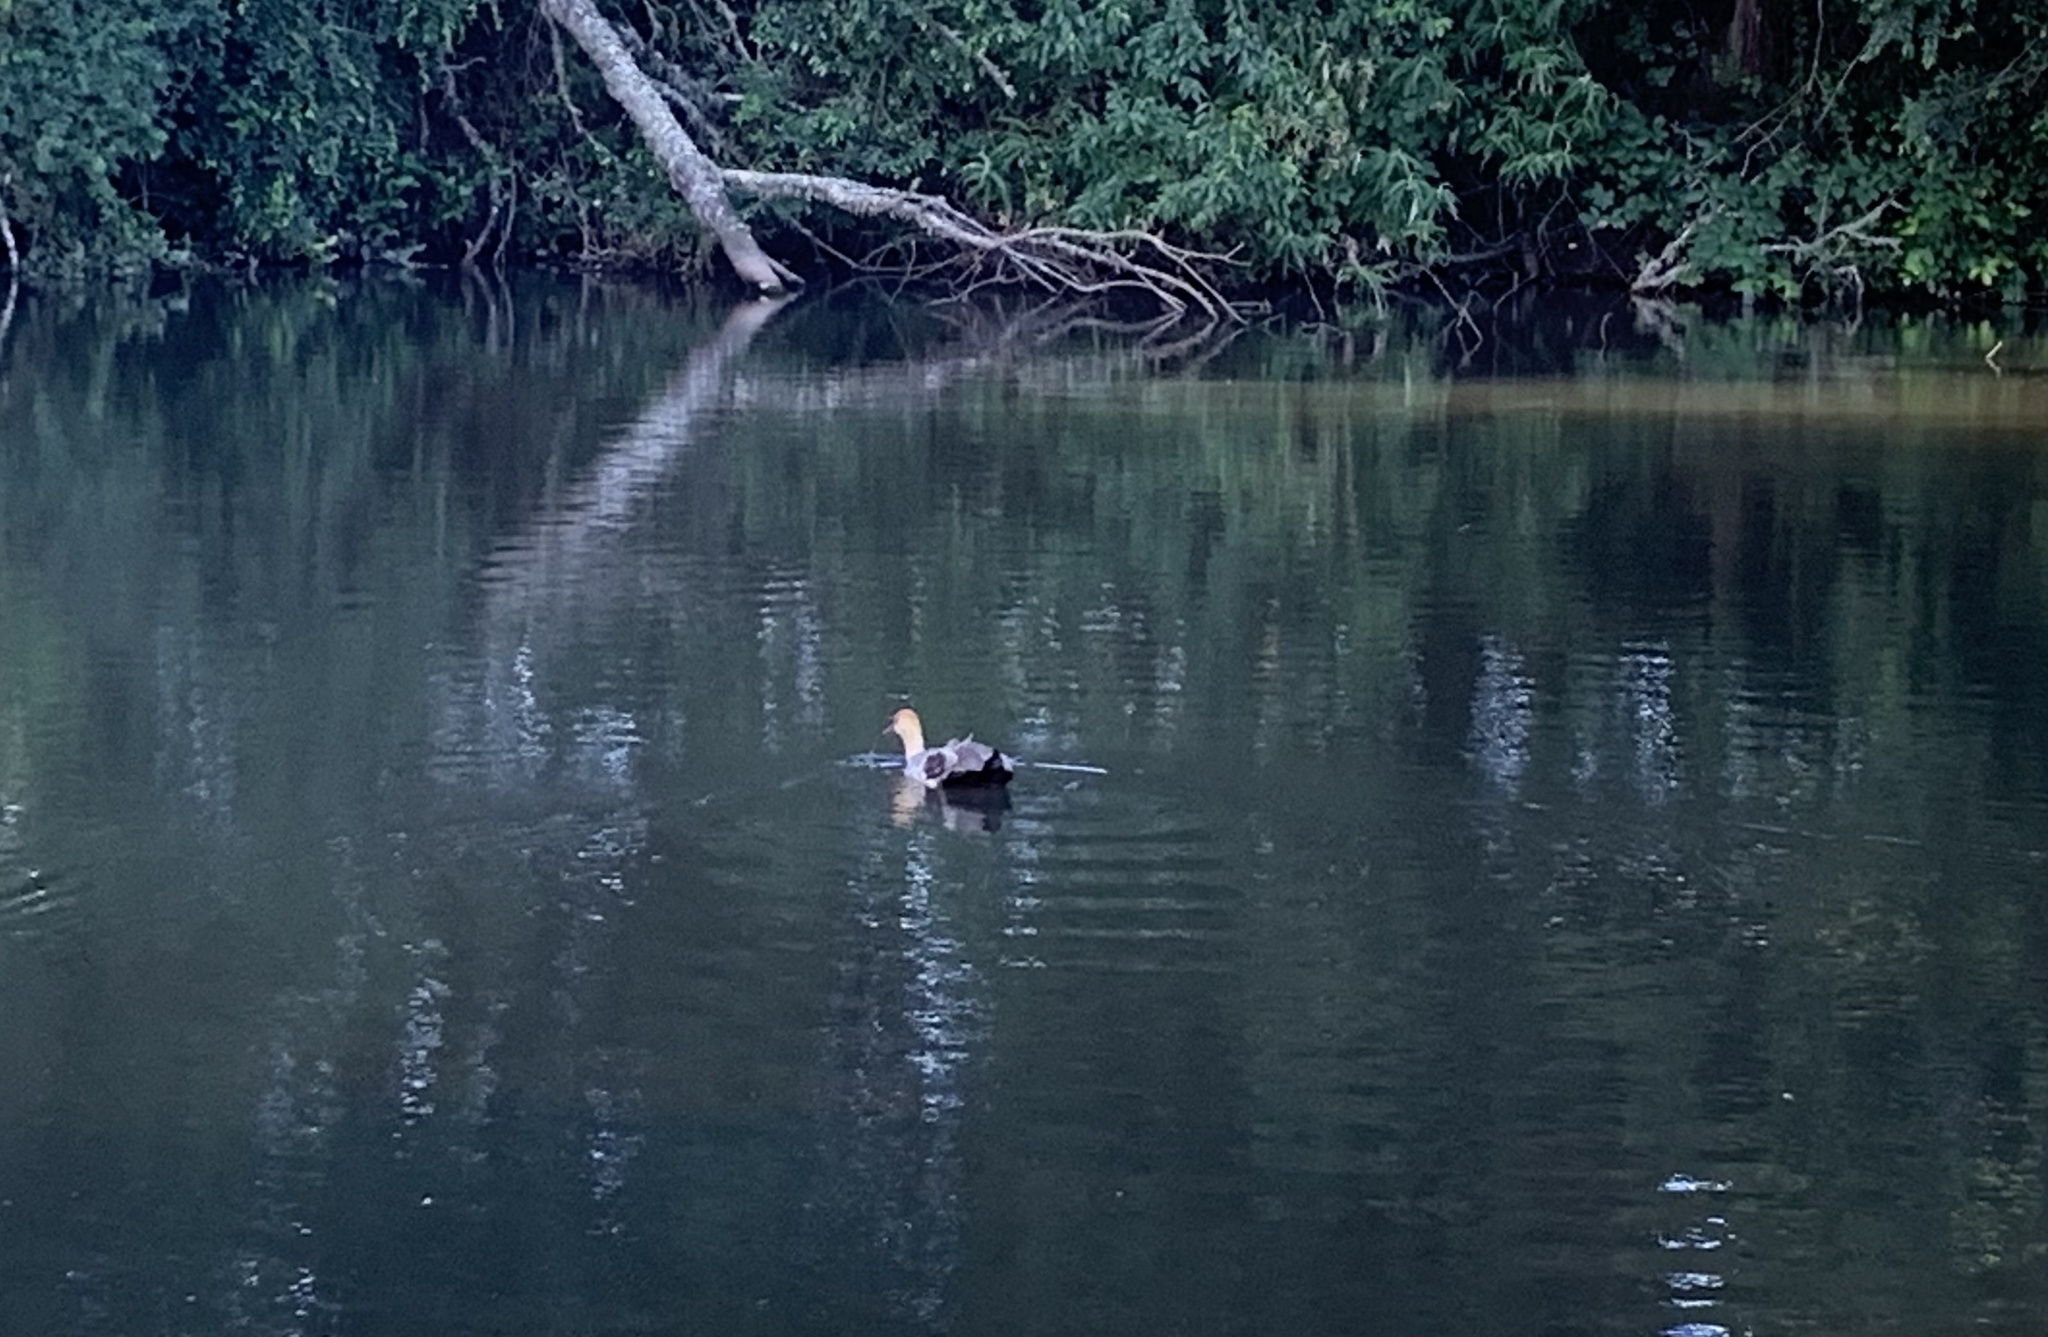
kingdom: Animalia
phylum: Chordata
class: Aves
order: Pelecaniformes
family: Threskiornithidae
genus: Theristicus
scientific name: Theristicus melanopis
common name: Black-faced ibis
